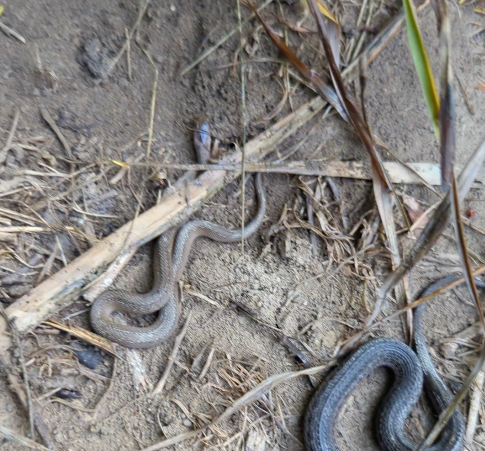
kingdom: Animalia
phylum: Chordata
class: Squamata
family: Colubridae
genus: Storeria
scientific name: Storeria dekayi
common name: (dekay’s) brown snake
